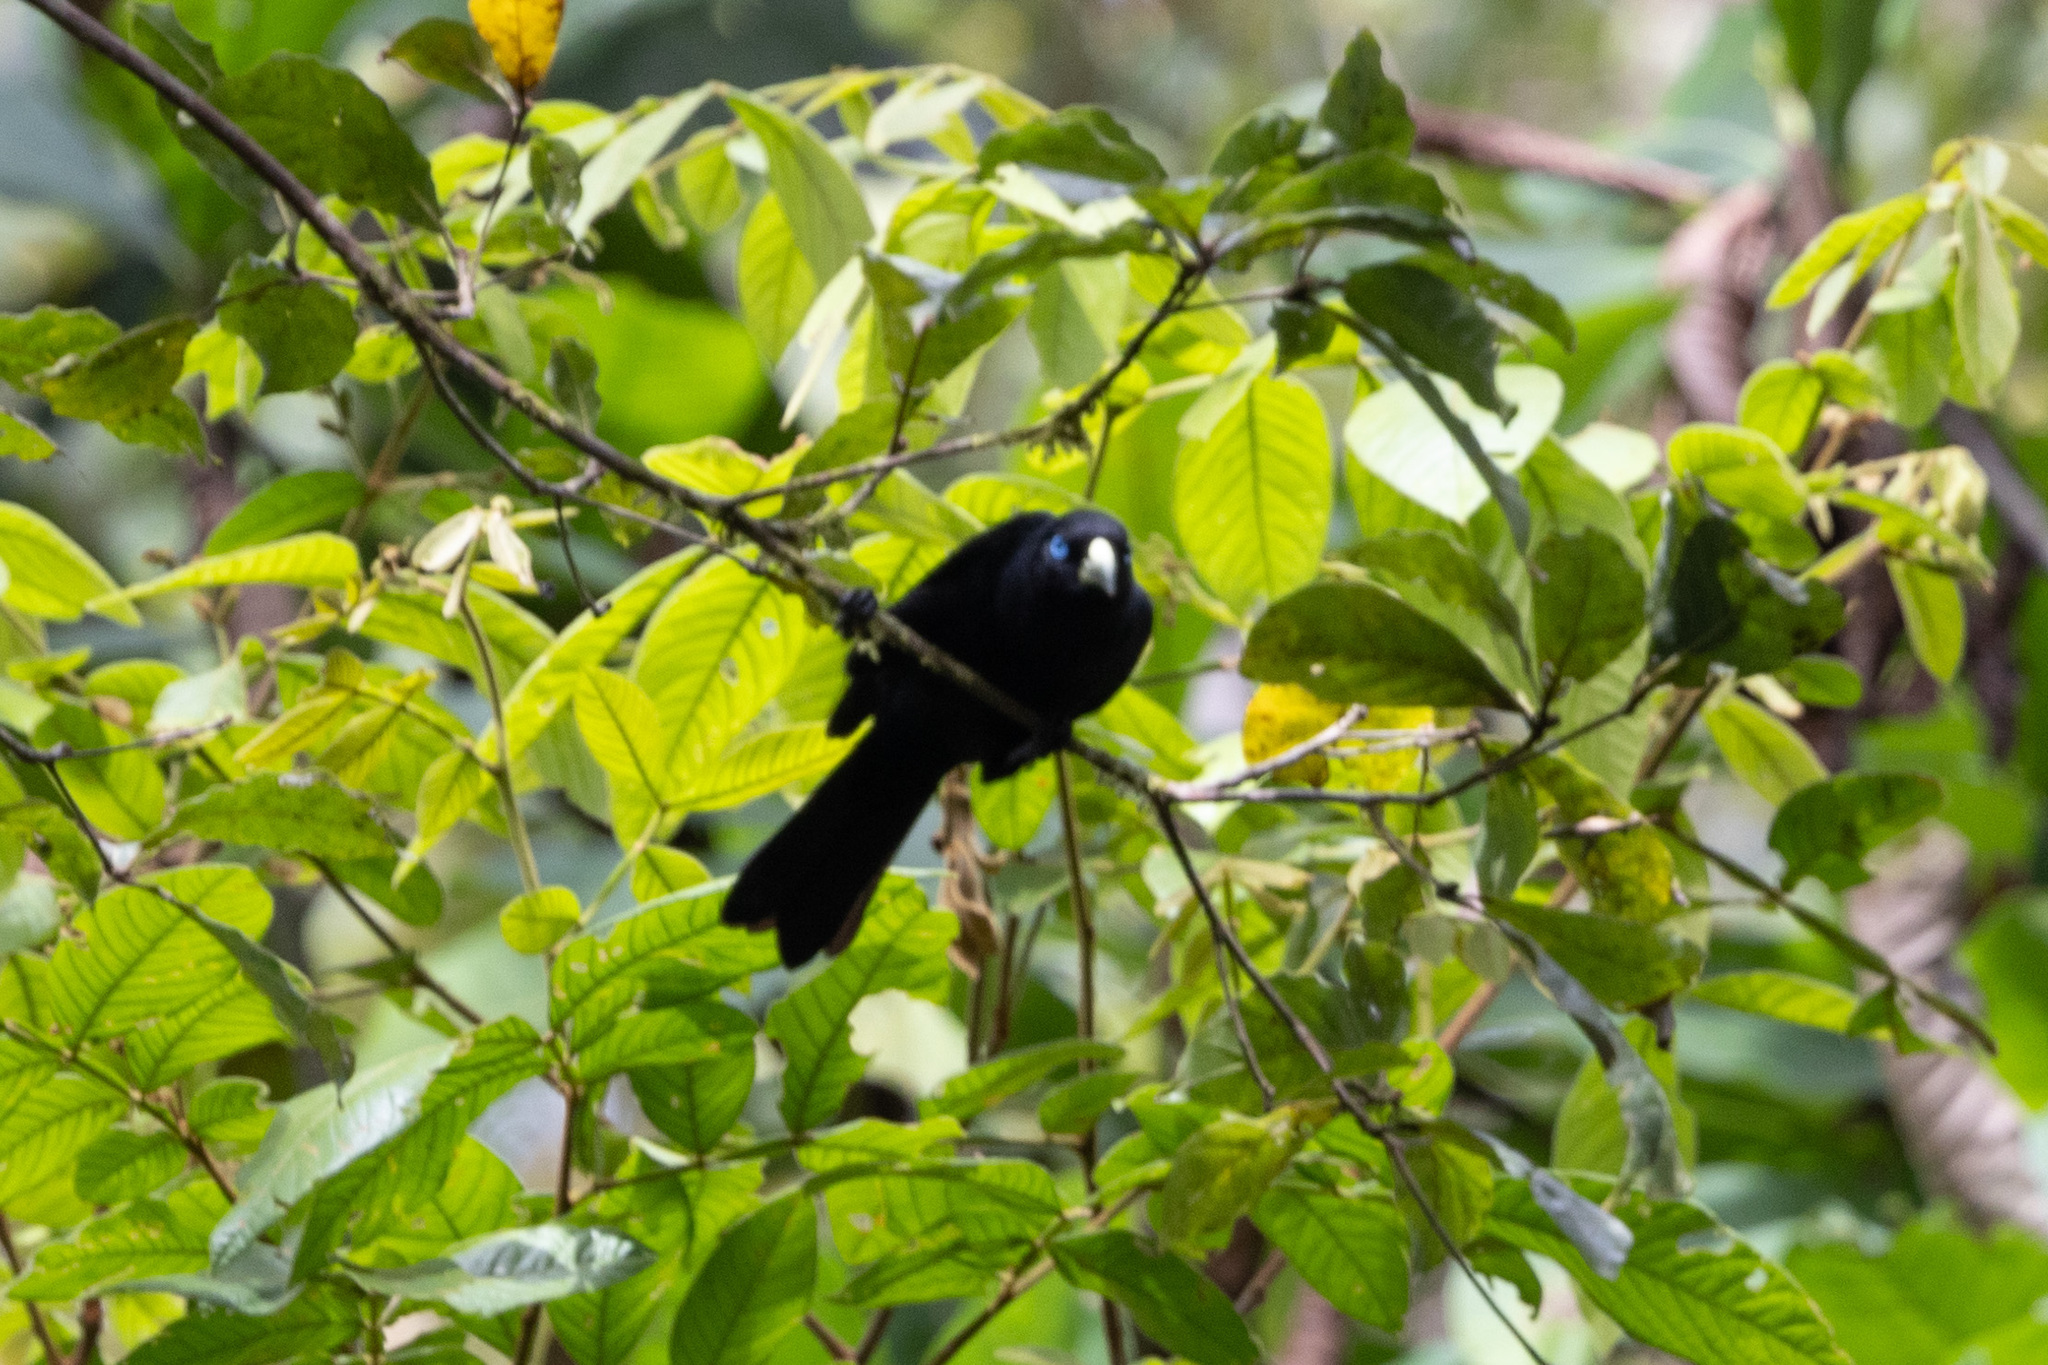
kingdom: Animalia
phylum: Chordata
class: Aves
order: Passeriformes
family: Icteridae
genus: Cacicus
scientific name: Cacicus uropygialis
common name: Scarlet-rumped cacique
